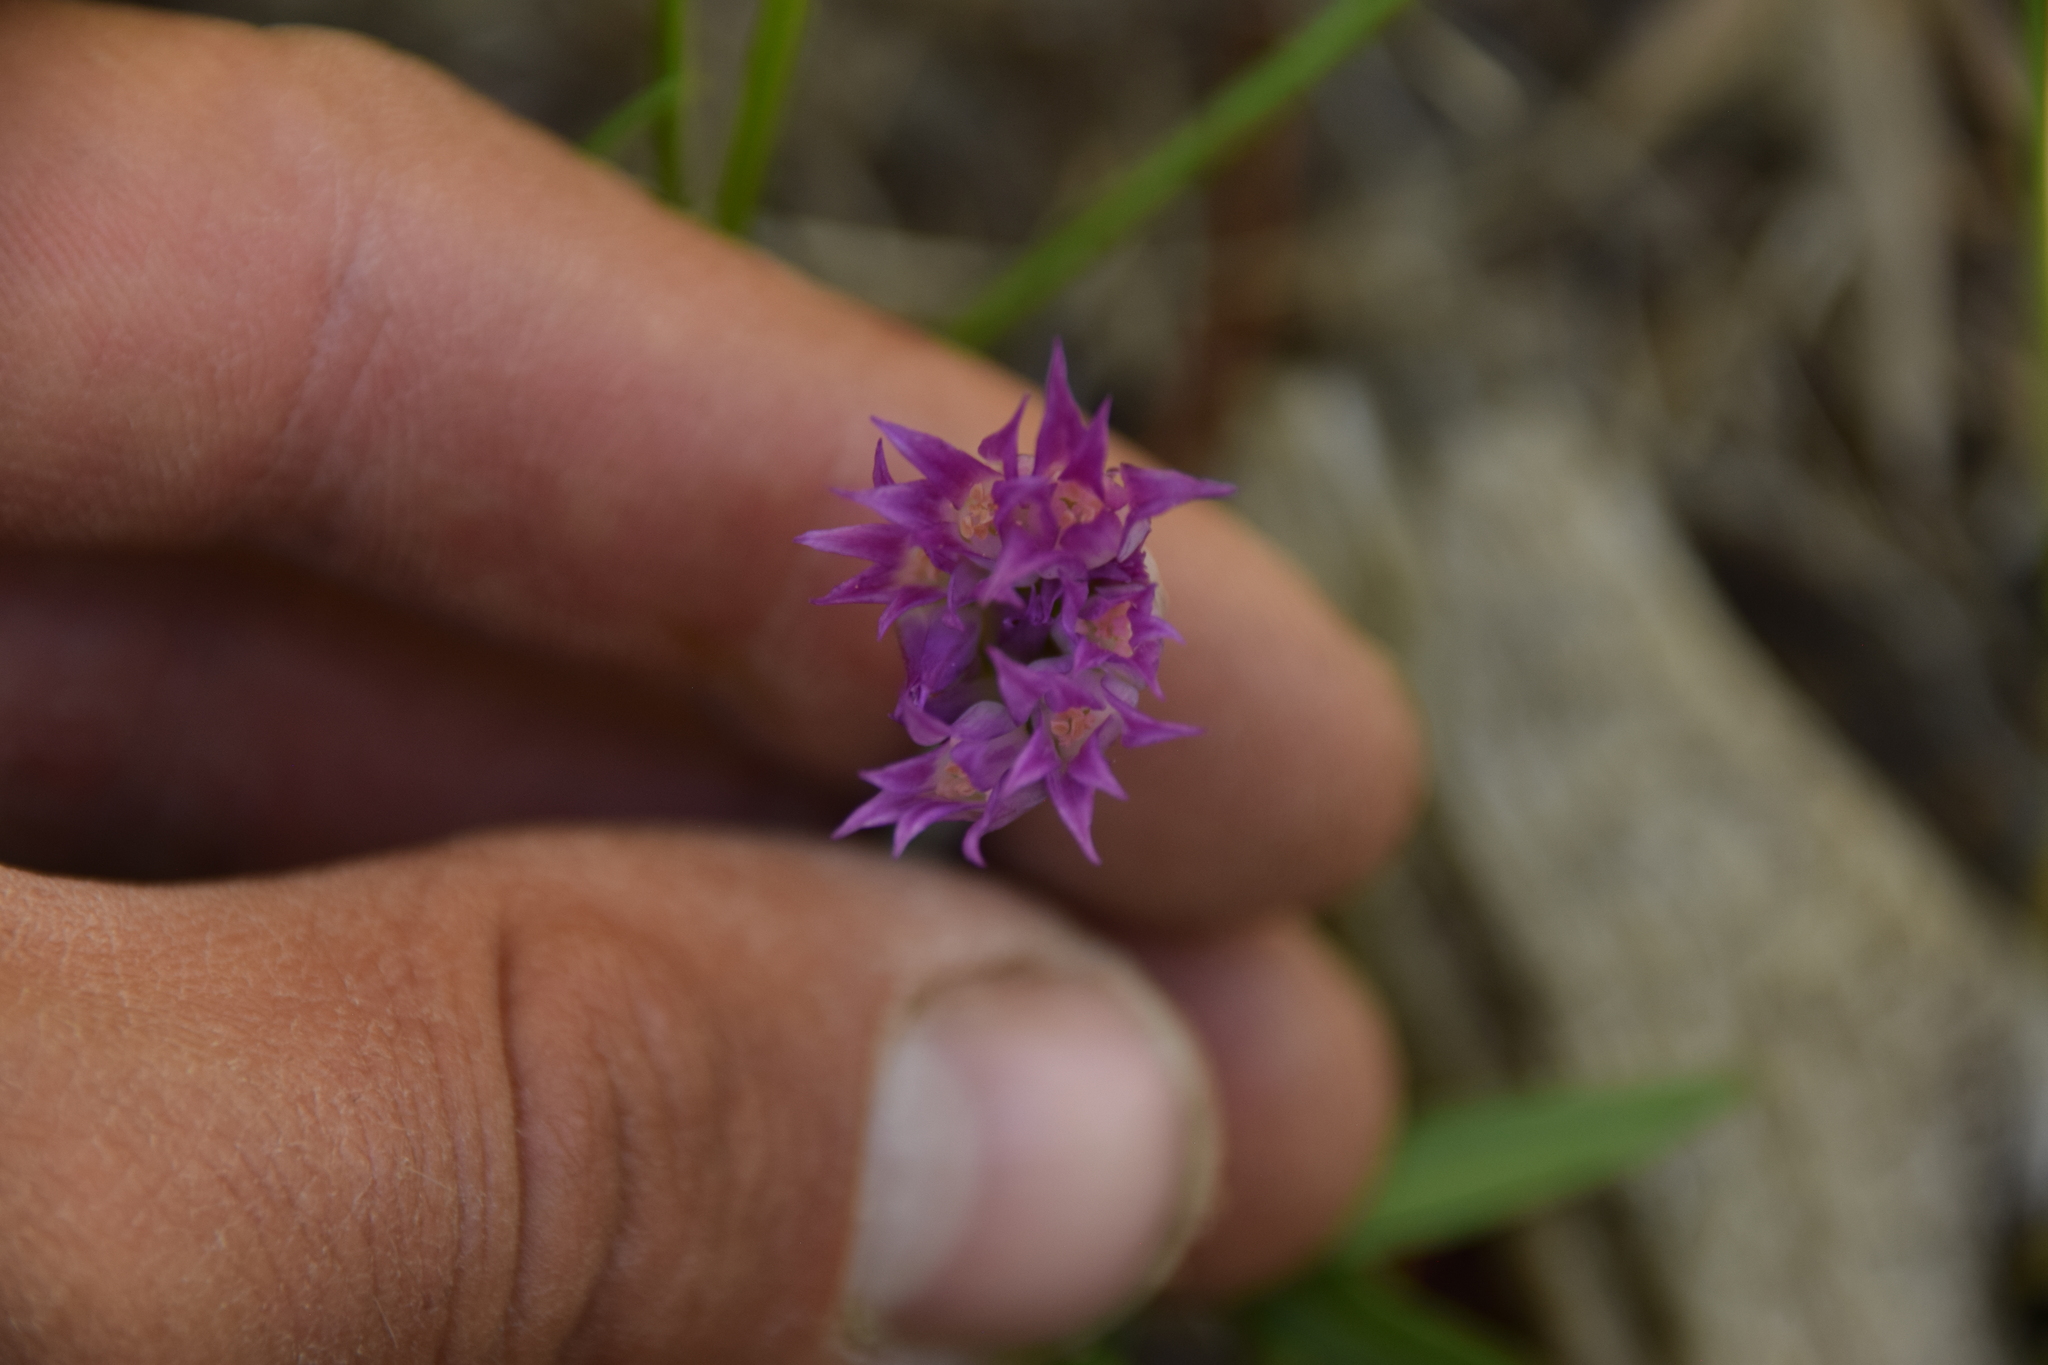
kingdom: Plantae
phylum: Tracheophyta
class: Liliopsida
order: Asparagales
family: Amaryllidaceae
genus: Allium
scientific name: Allium brevistylum
